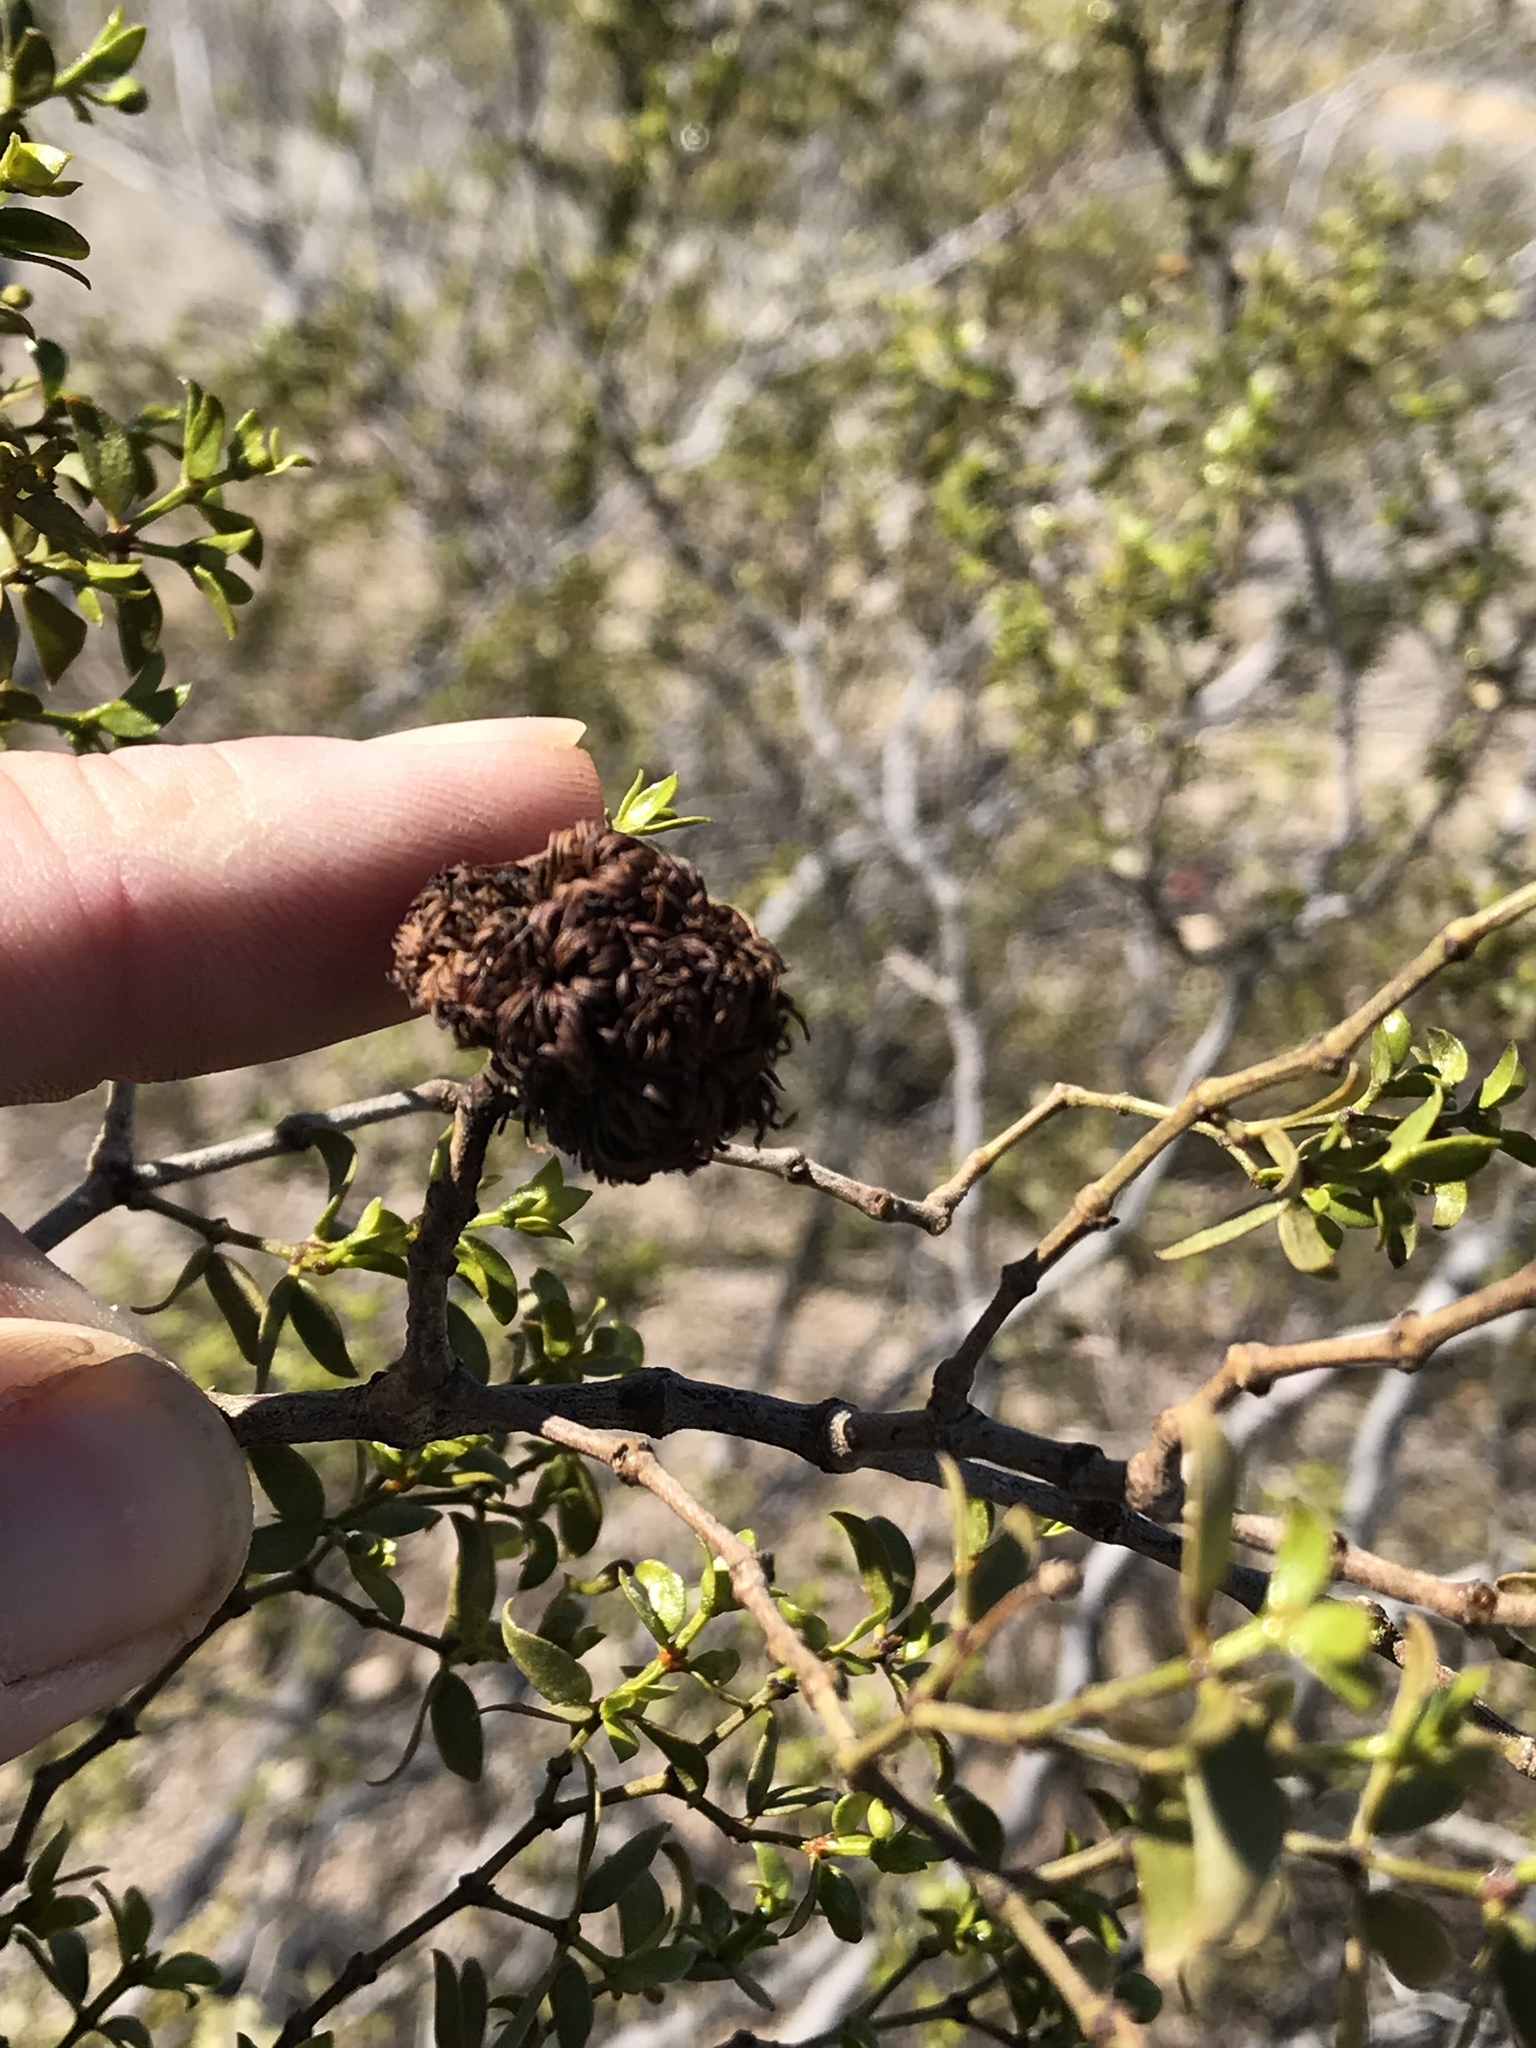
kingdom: Animalia
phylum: Arthropoda
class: Insecta
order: Diptera
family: Cecidomyiidae
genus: Asphondylia
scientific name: Asphondylia auripila
